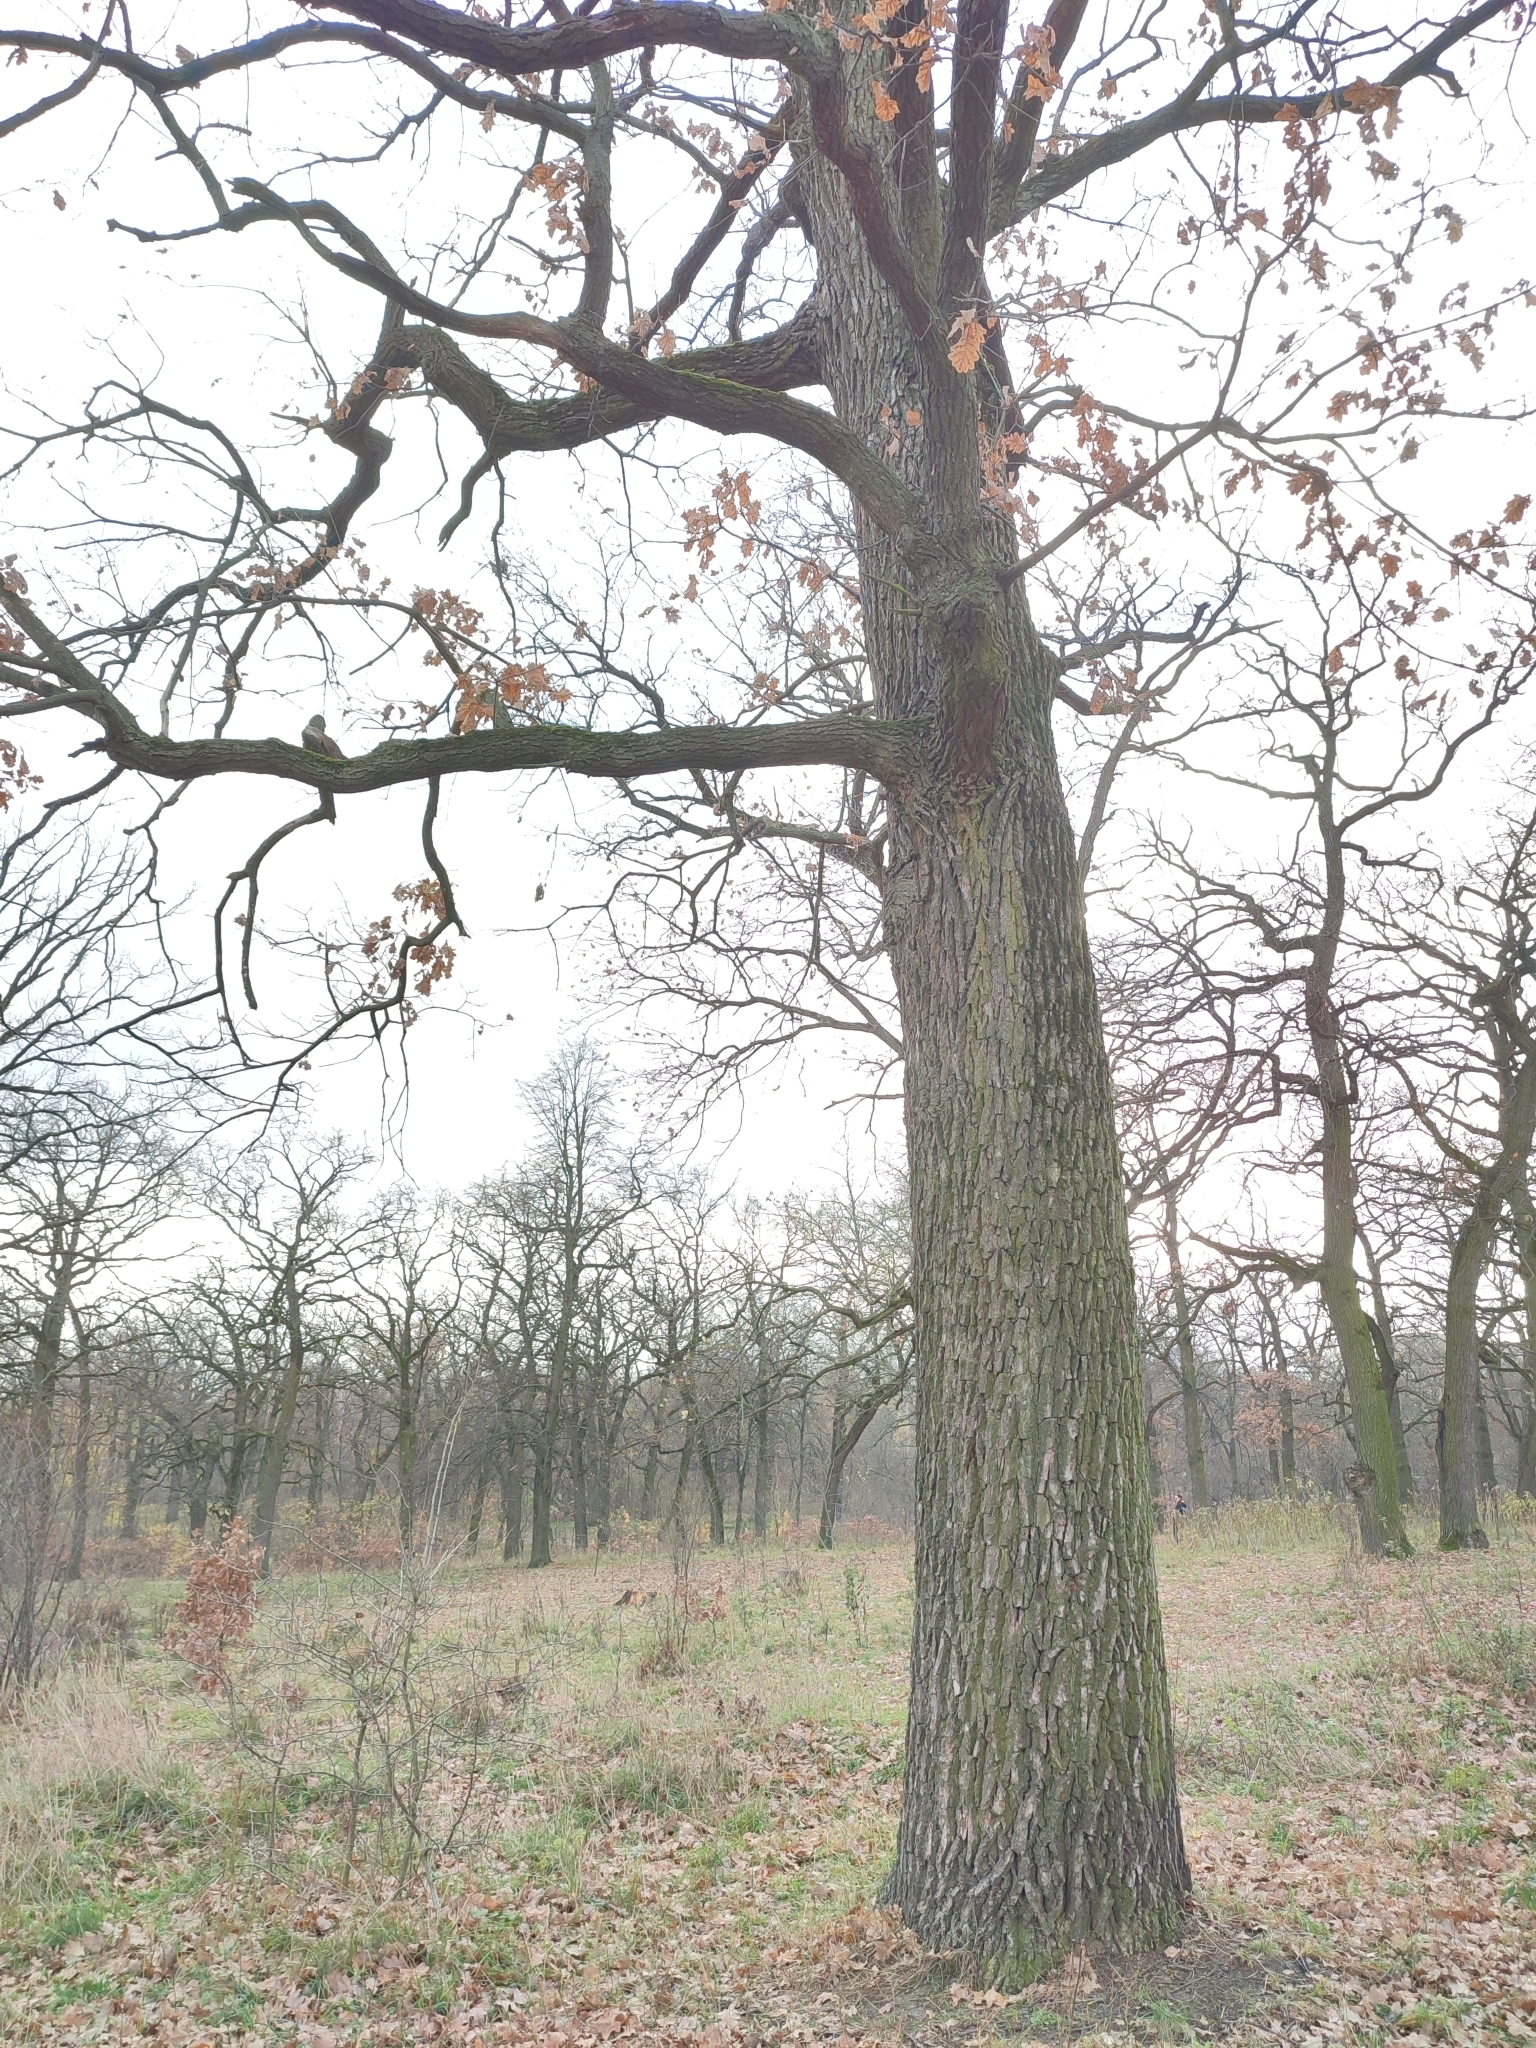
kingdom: Plantae
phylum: Tracheophyta
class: Magnoliopsida
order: Fagales
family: Fagaceae
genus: Quercus
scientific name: Quercus robur
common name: Pedunculate oak
